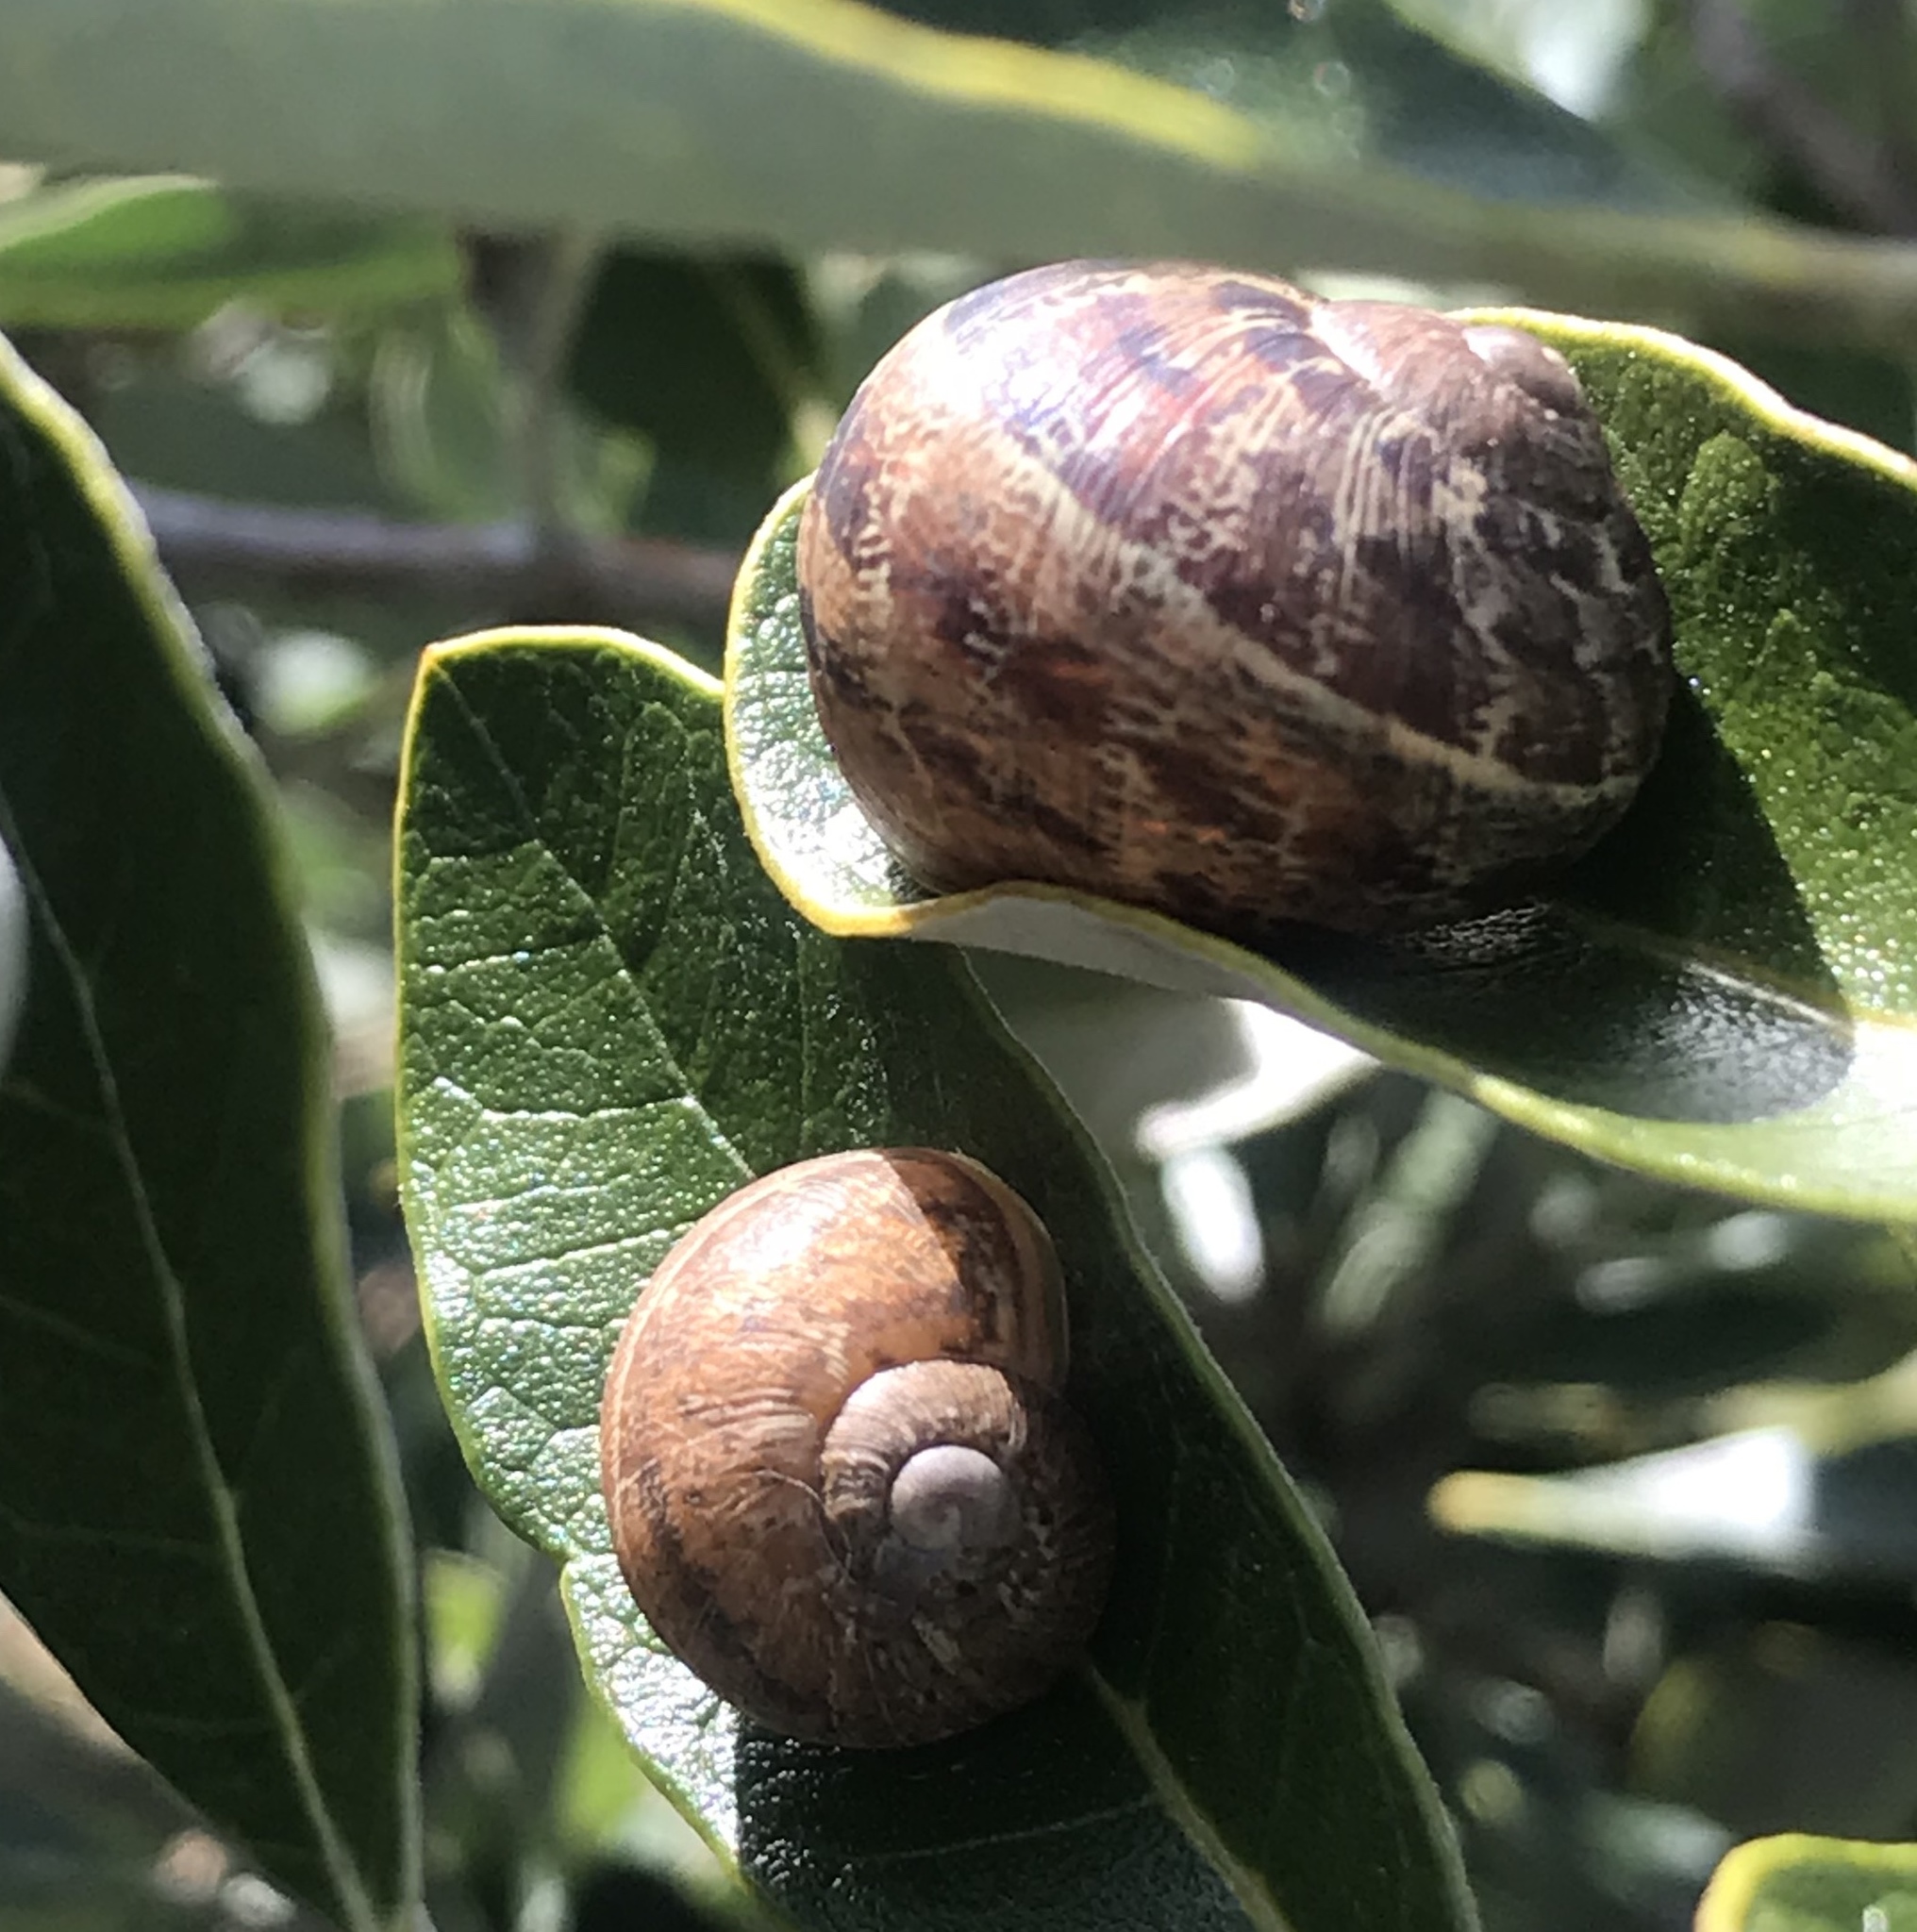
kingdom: Animalia
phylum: Mollusca
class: Gastropoda
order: Stylommatophora
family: Helicidae
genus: Cornu
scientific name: Cornu aspersum
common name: Brown garden snail
